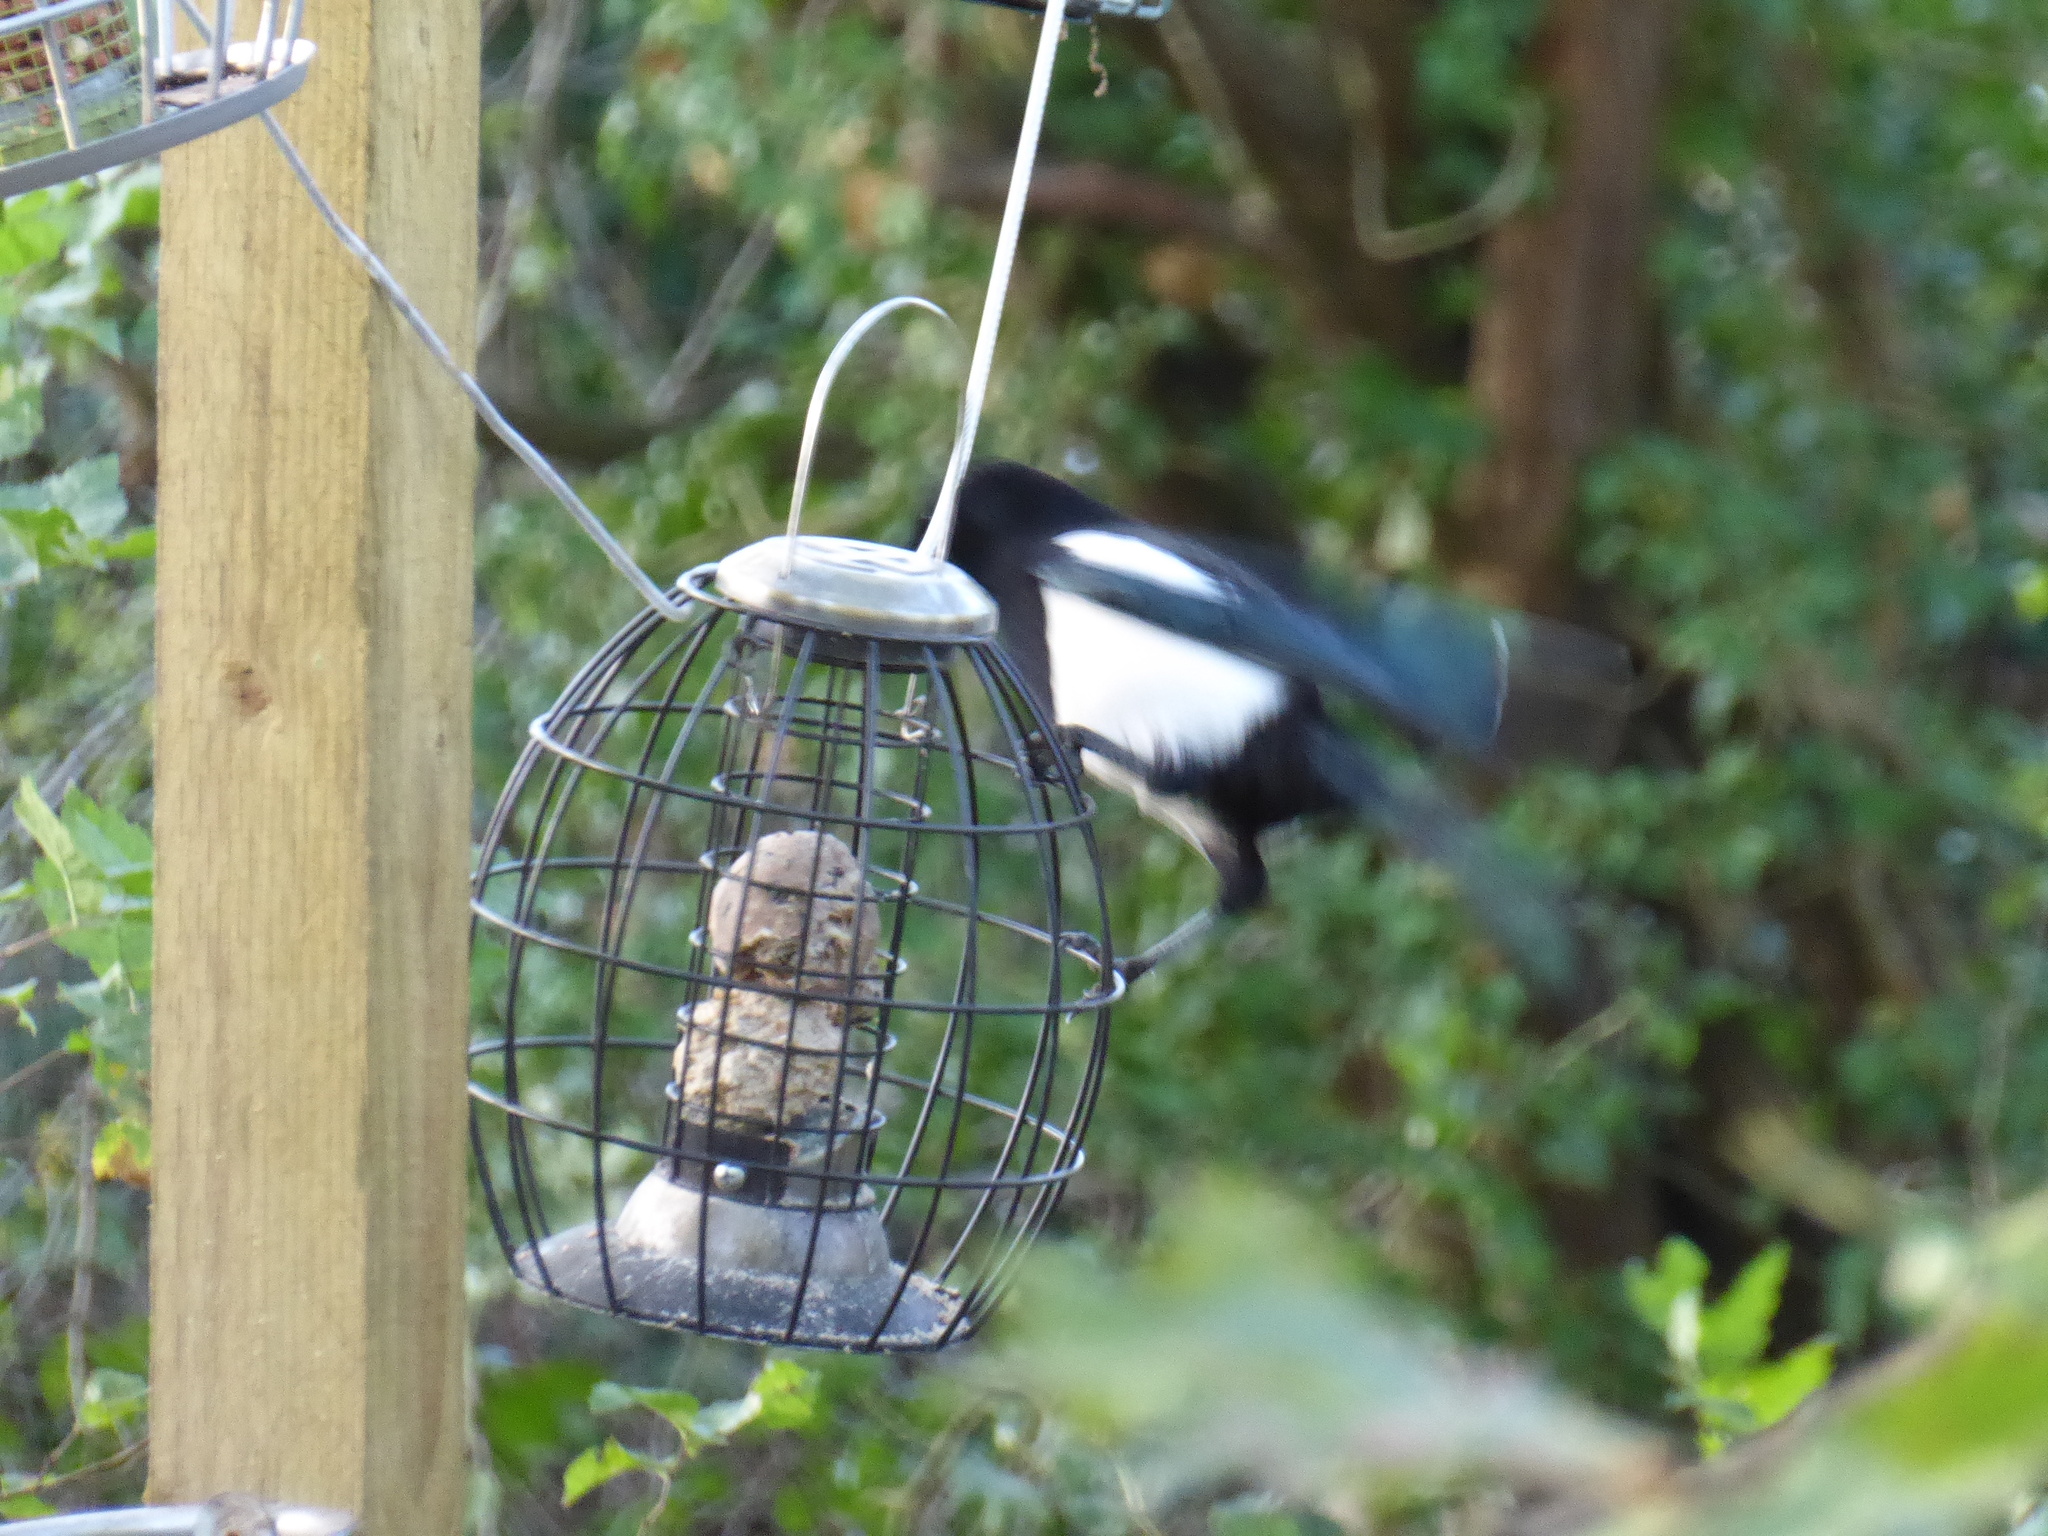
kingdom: Animalia
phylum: Chordata
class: Aves
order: Passeriformes
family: Corvidae
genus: Pica
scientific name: Pica pica
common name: Eurasian magpie
